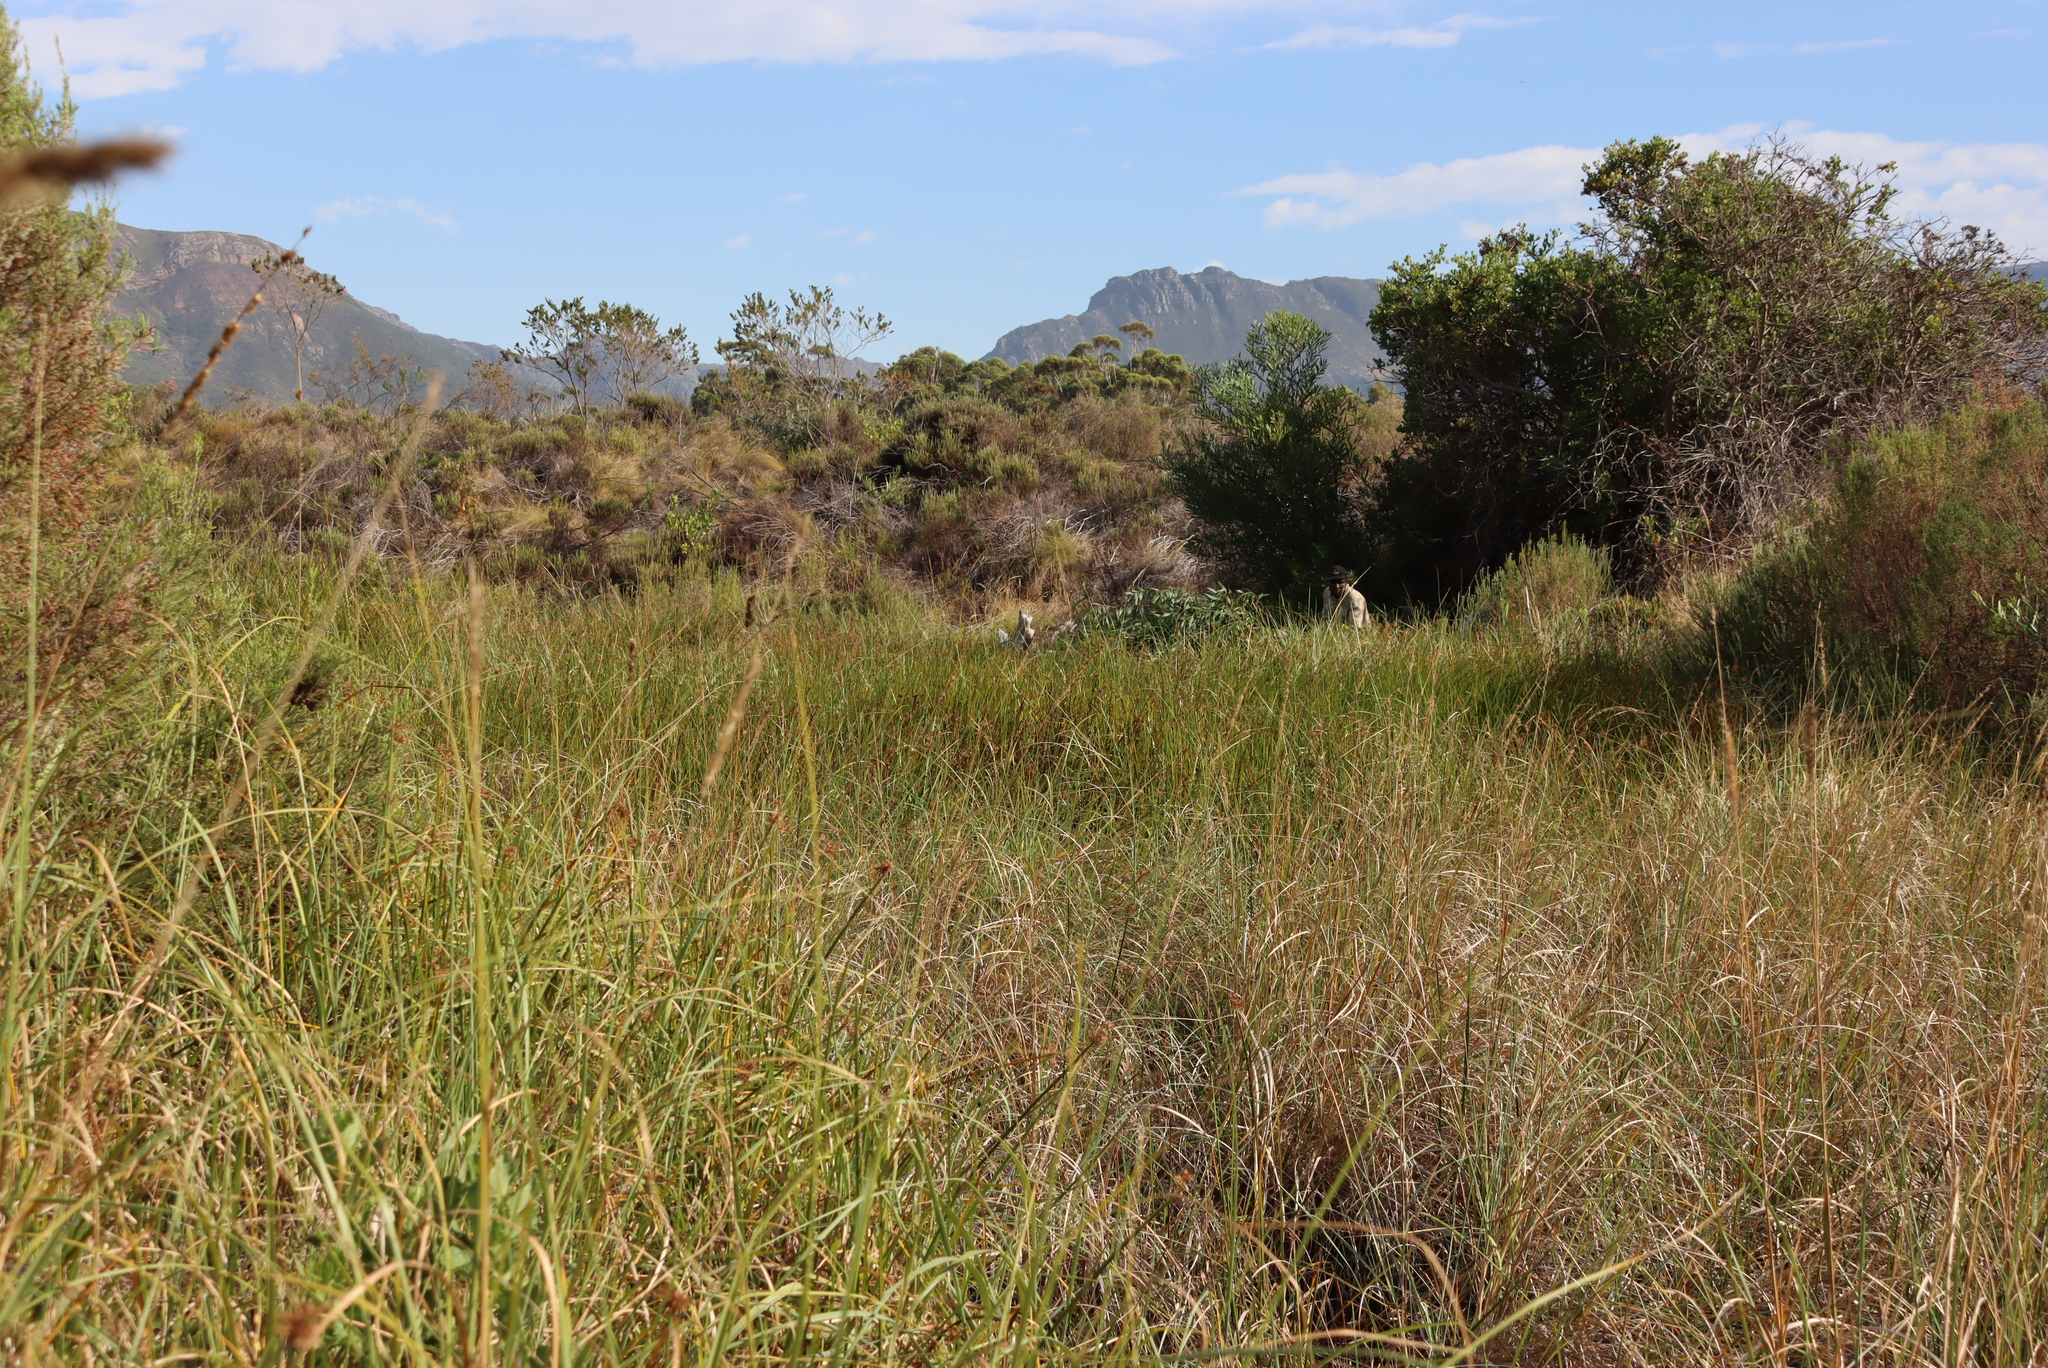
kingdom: Plantae
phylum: Tracheophyta
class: Magnoliopsida
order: Fabales
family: Fabaceae
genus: Acacia
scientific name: Acacia longifolia
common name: Sydney golden wattle
